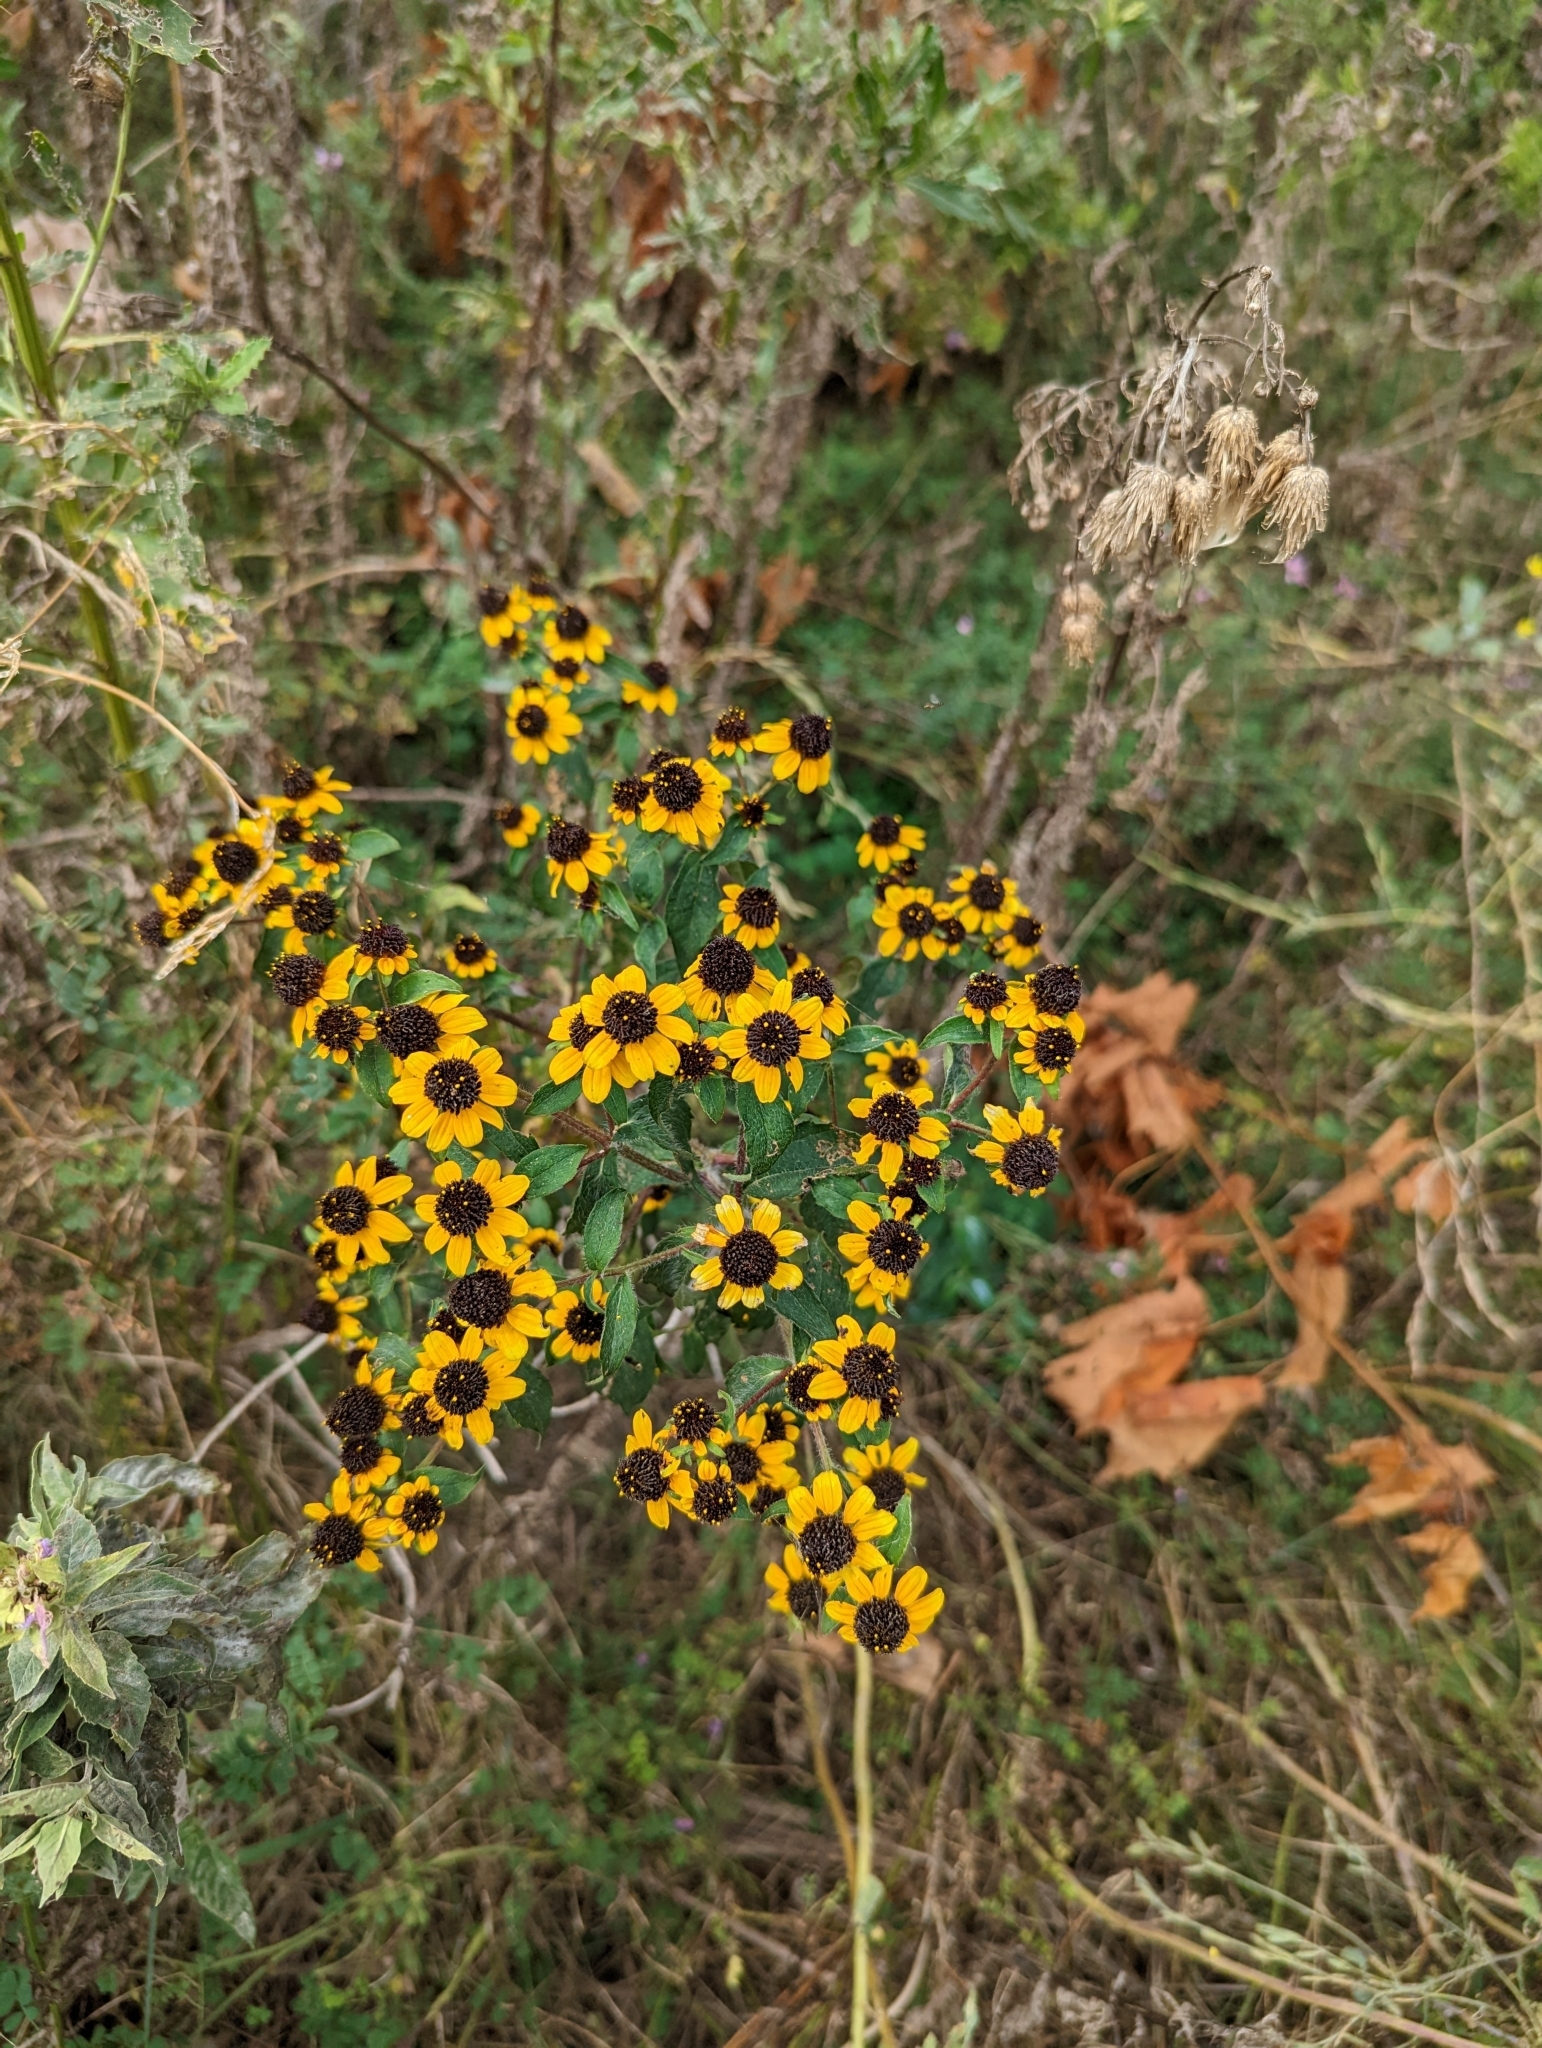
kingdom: Plantae
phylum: Tracheophyta
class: Magnoliopsida
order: Asterales
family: Asteraceae
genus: Rudbeckia
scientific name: Rudbeckia triloba
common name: Thin-leaved coneflower
